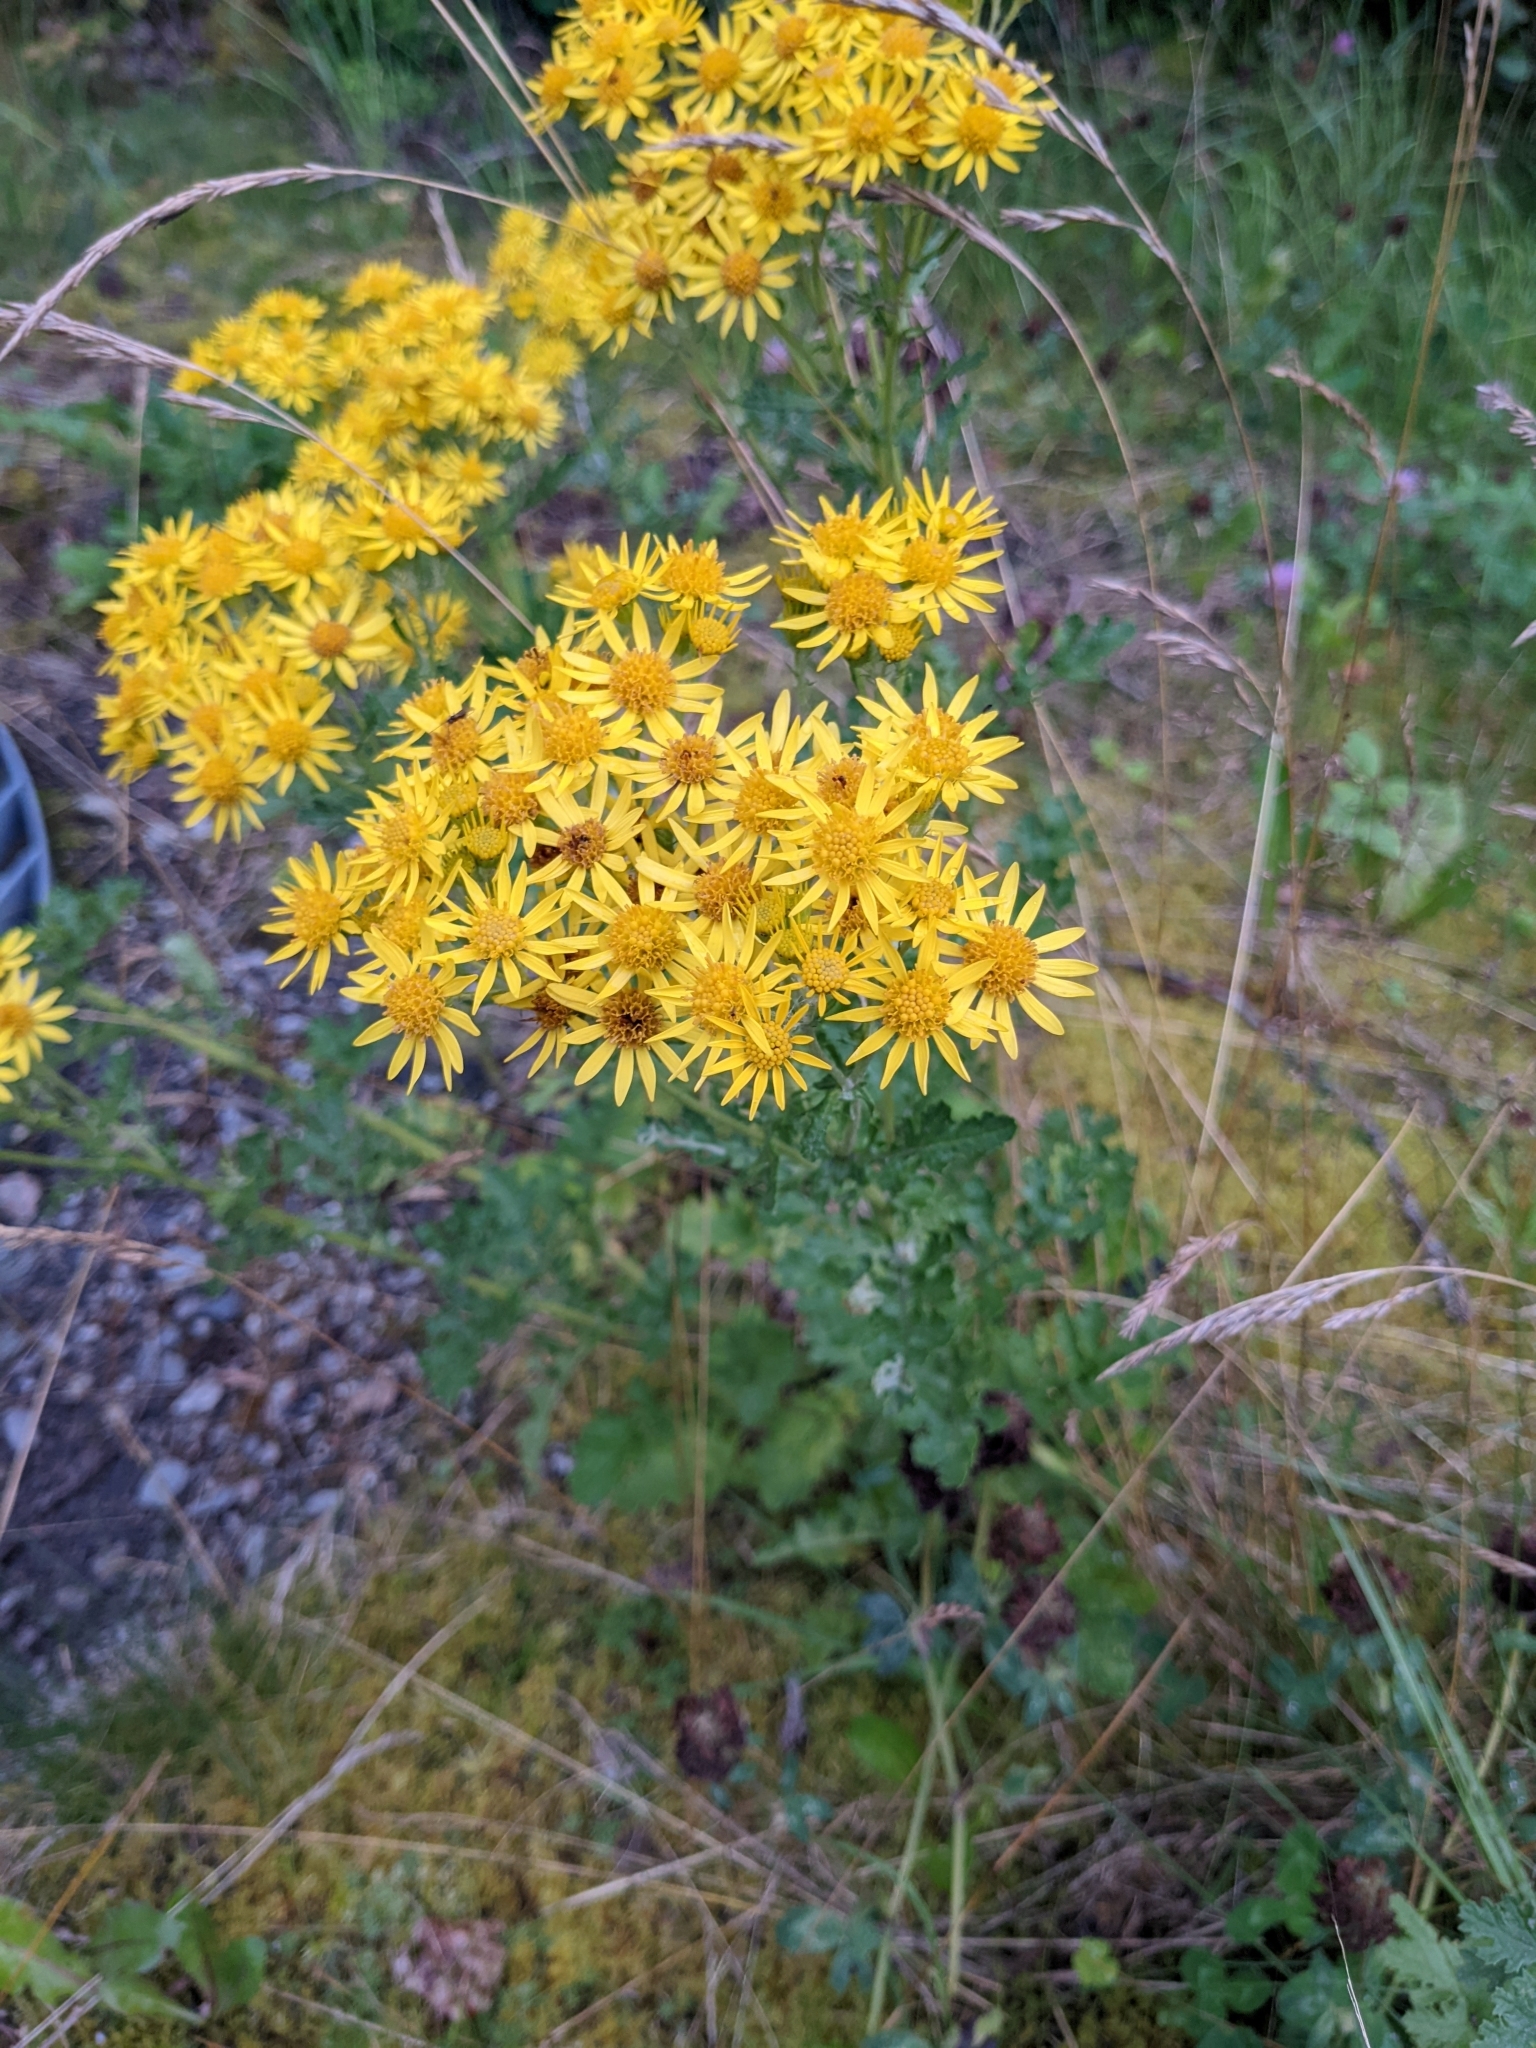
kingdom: Plantae
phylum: Tracheophyta
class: Magnoliopsida
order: Asterales
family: Asteraceae
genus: Jacobaea
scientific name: Jacobaea vulgaris
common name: Stinking willie
